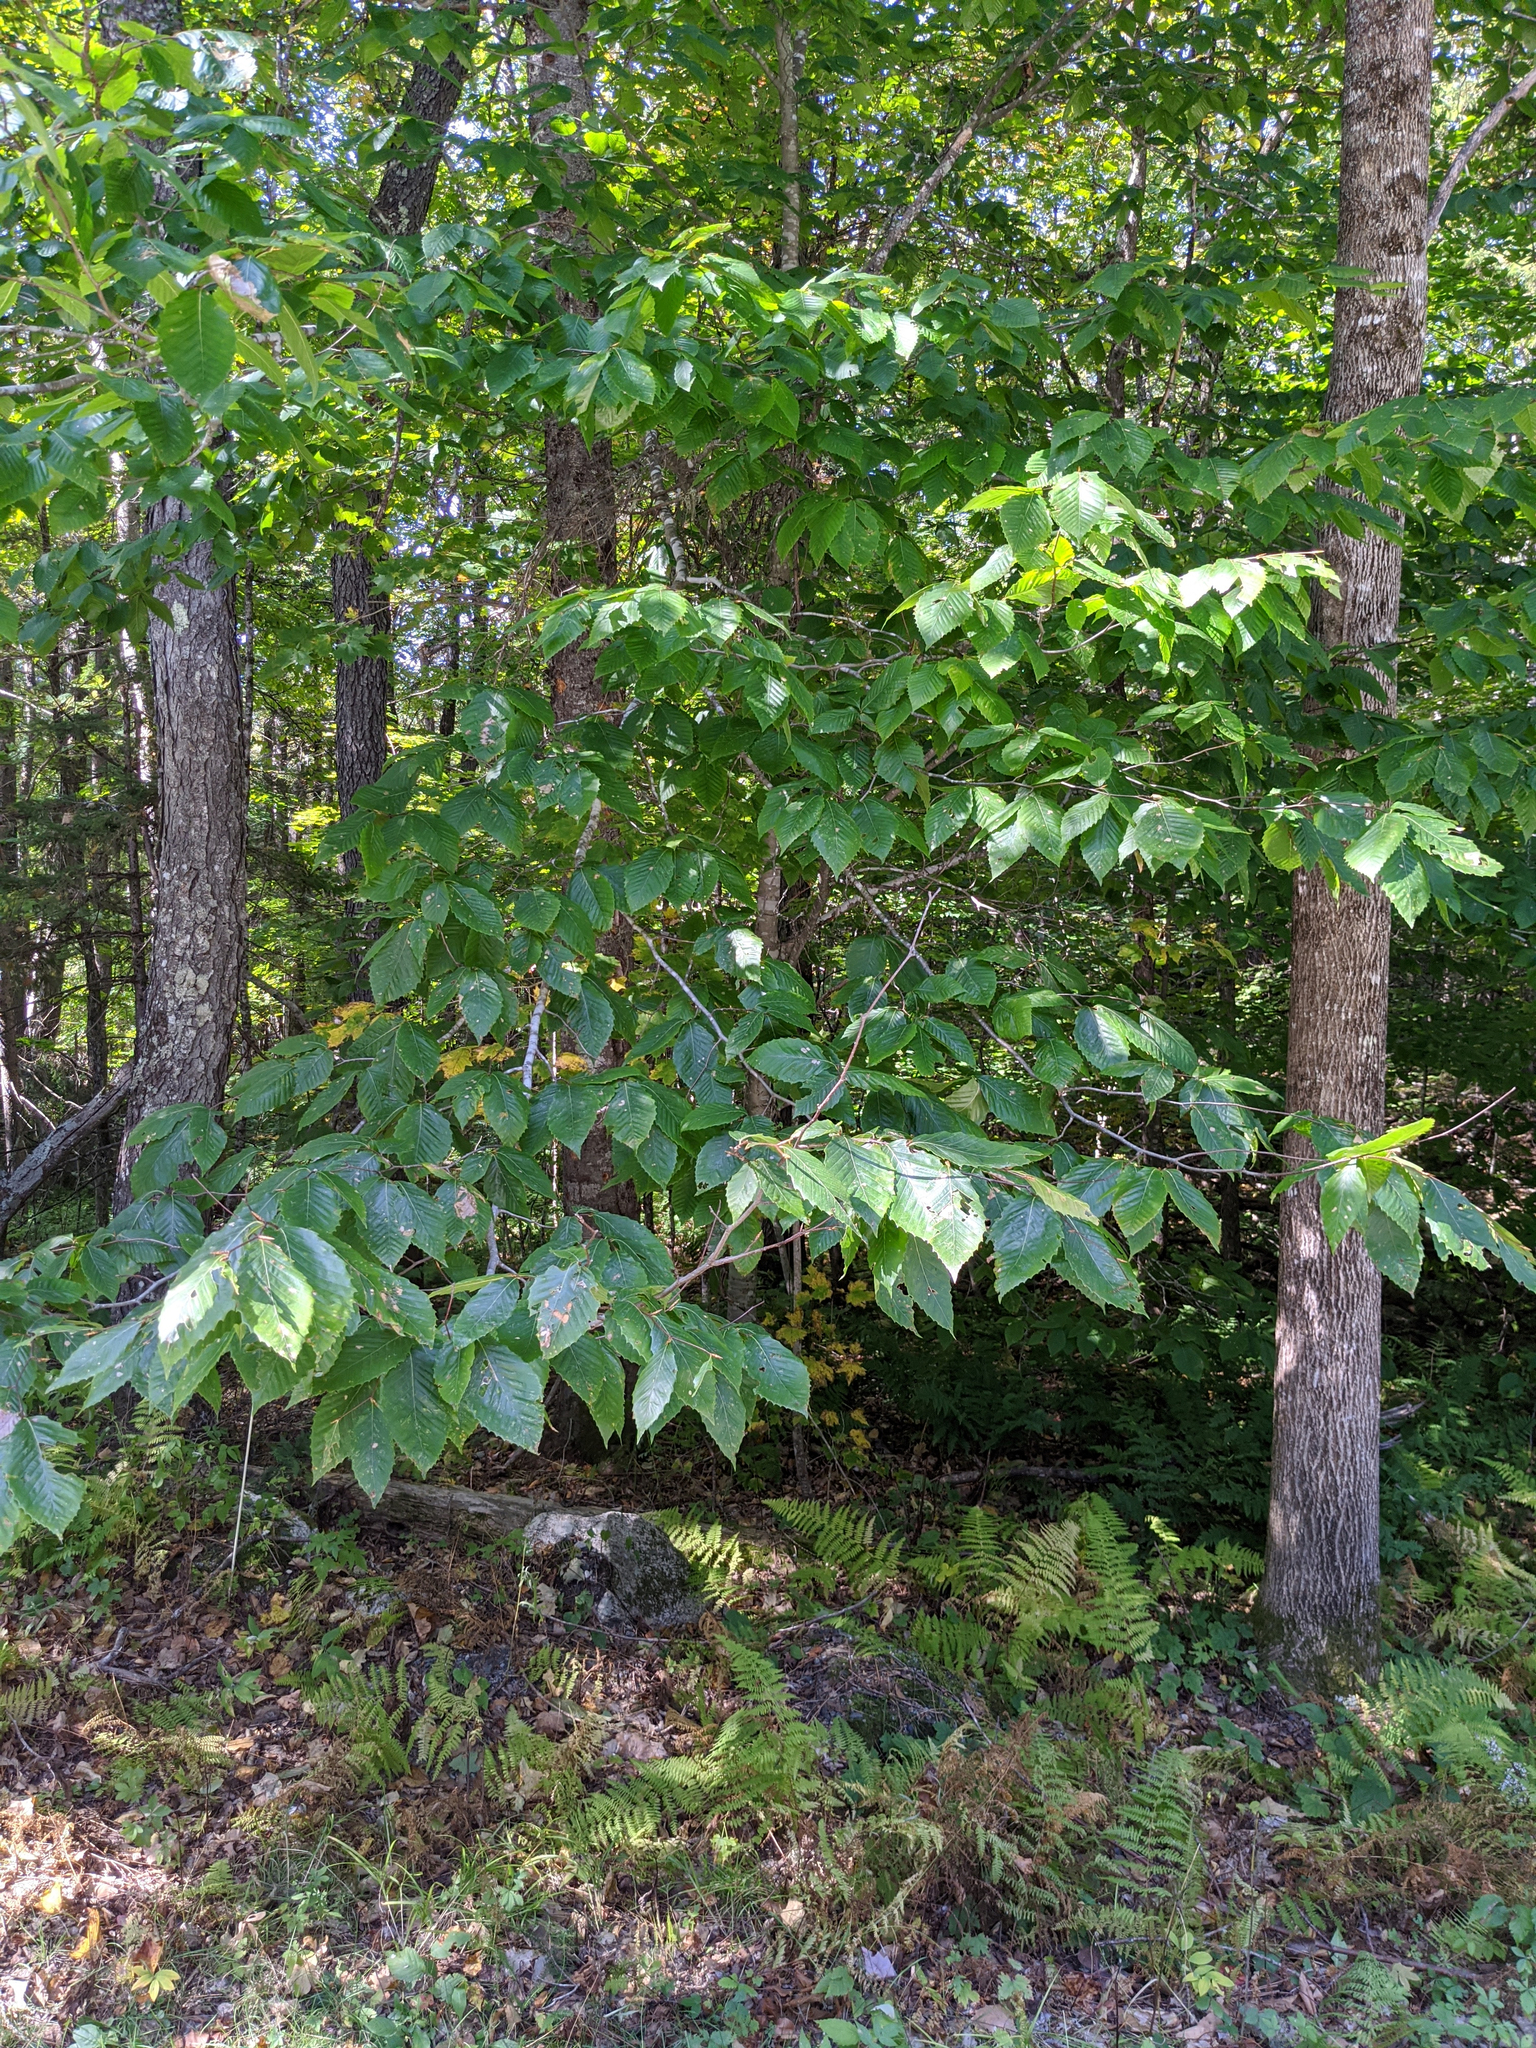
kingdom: Plantae
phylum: Tracheophyta
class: Magnoliopsida
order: Fagales
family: Fagaceae
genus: Fagus
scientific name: Fagus grandifolia
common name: American beech
